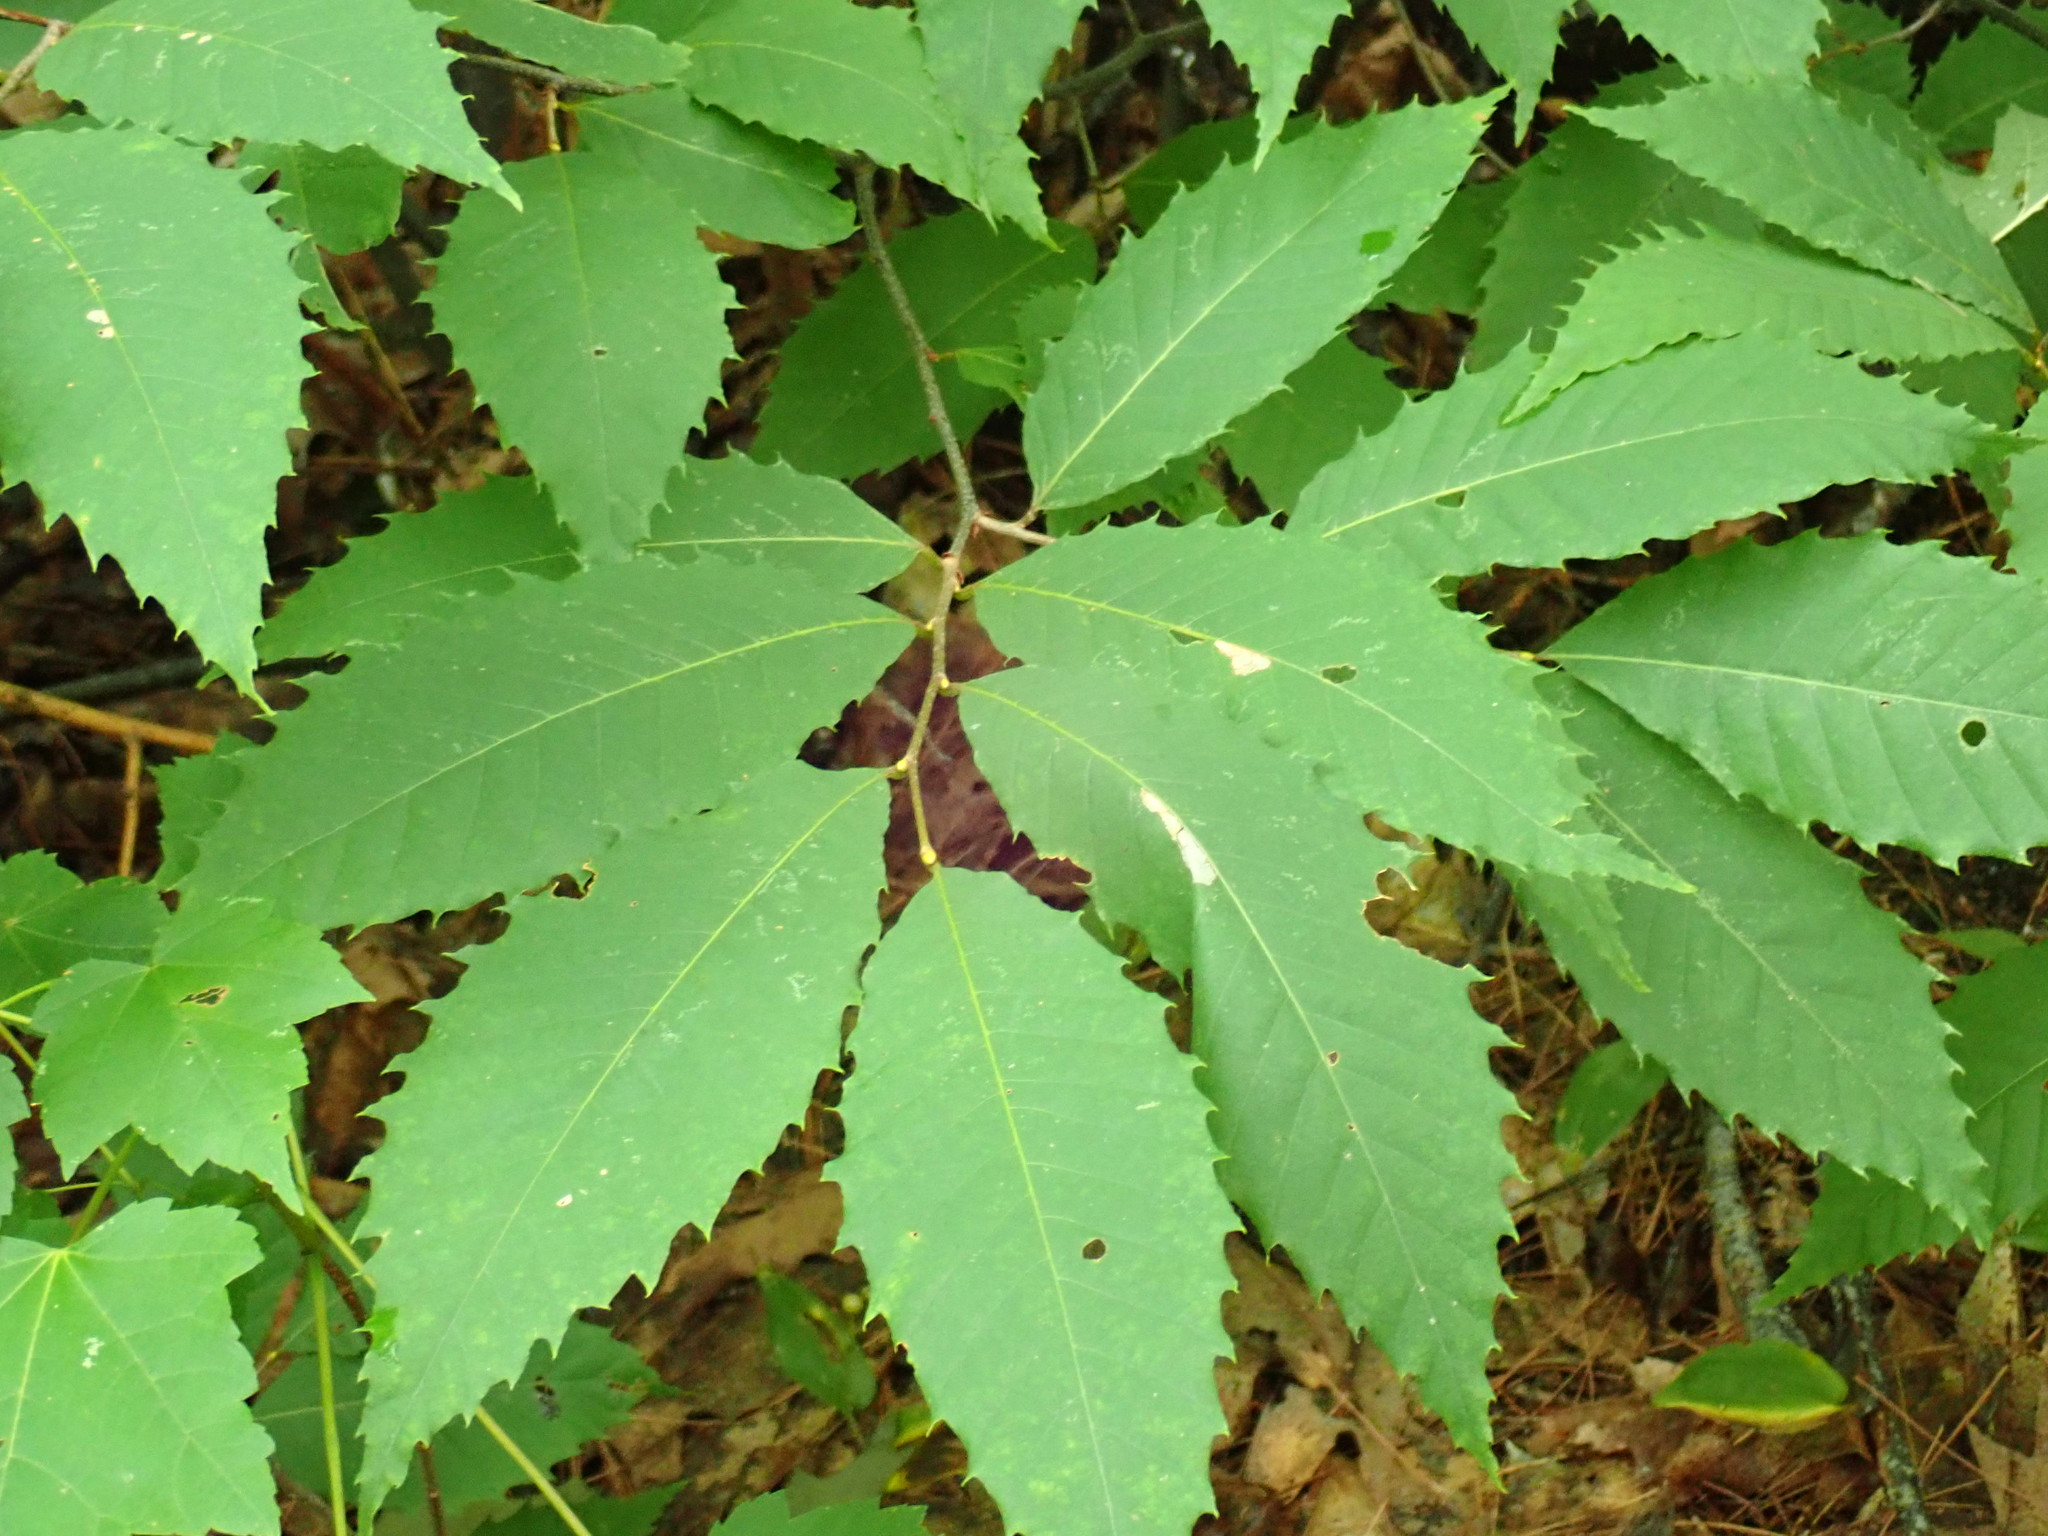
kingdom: Plantae
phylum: Tracheophyta
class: Magnoliopsida
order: Fagales
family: Fagaceae
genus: Castanea
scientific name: Castanea dentata
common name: American chestnut
